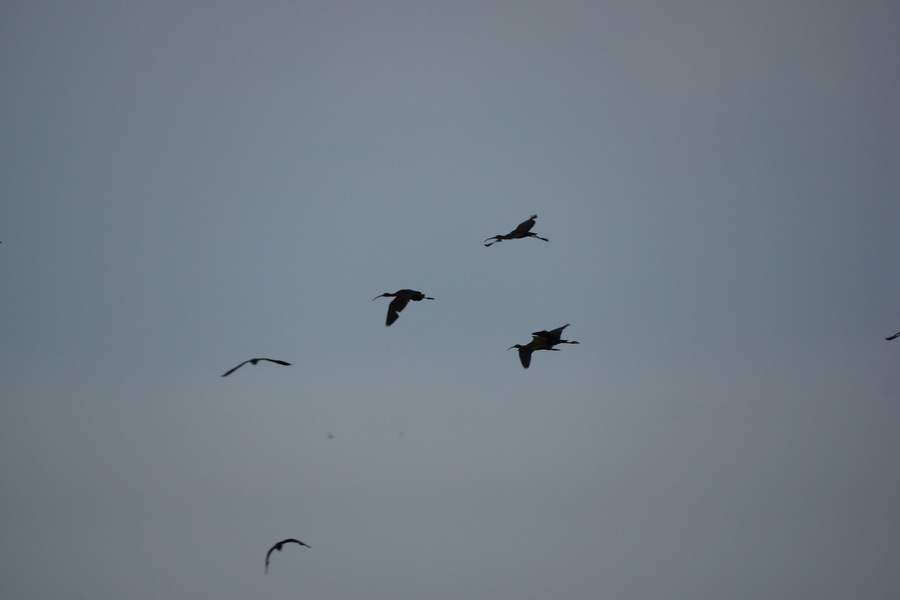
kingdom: Animalia
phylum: Chordata
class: Aves
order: Pelecaniformes
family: Threskiornithidae
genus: Plegadis
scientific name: Plegadis falcinellus
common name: Glossy ibis
